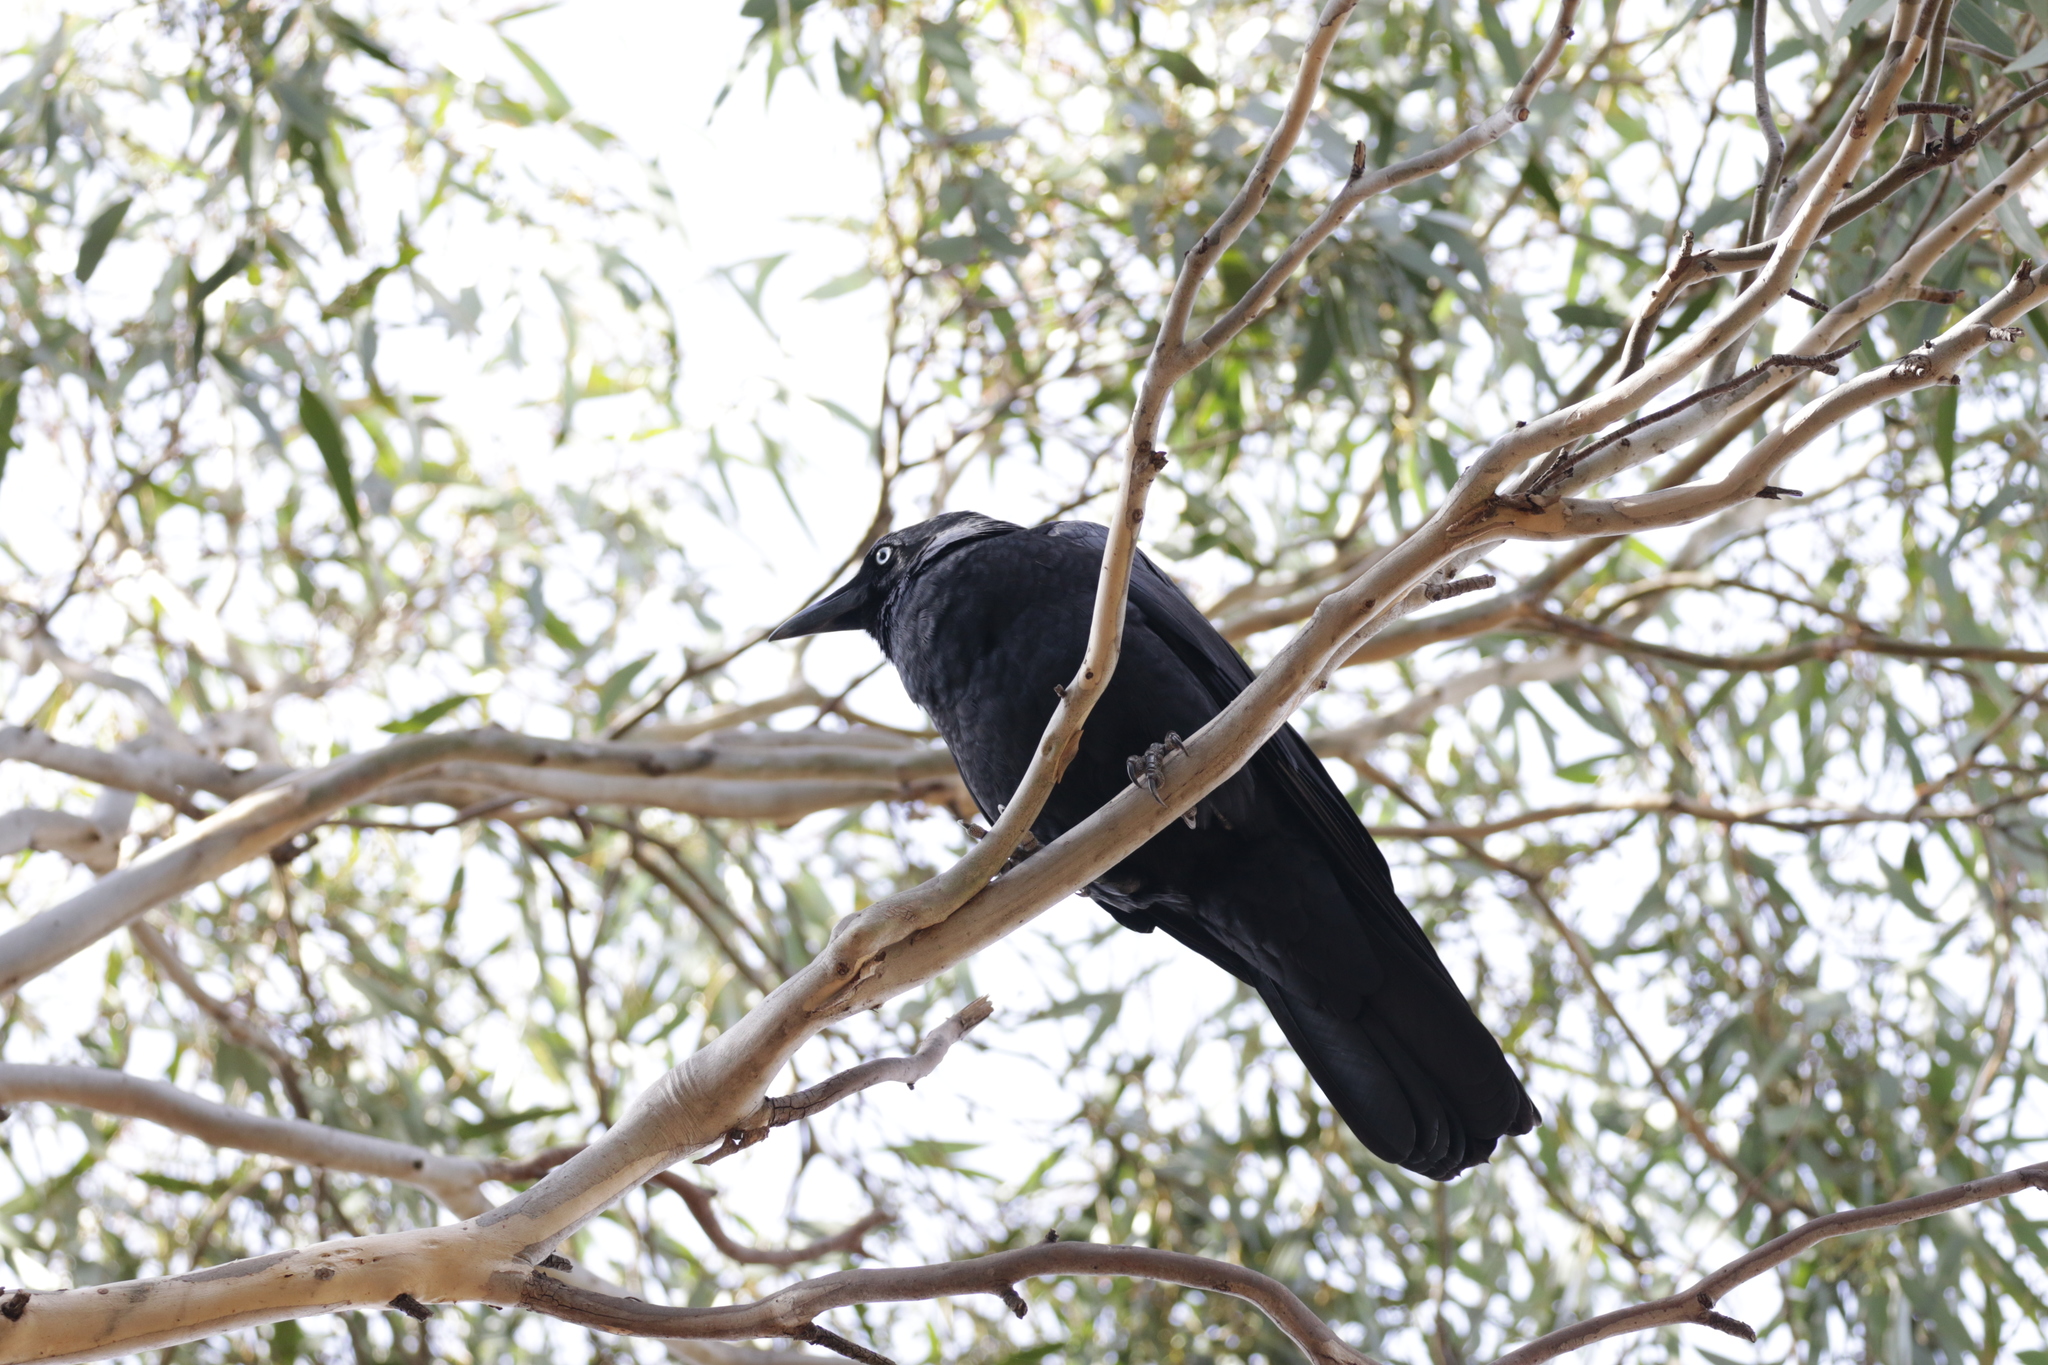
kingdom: Animalia
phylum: Chordata
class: Aves
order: Passeriformes
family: Corvidae
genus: Corvus
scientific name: Corvus mellori
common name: Little raven
